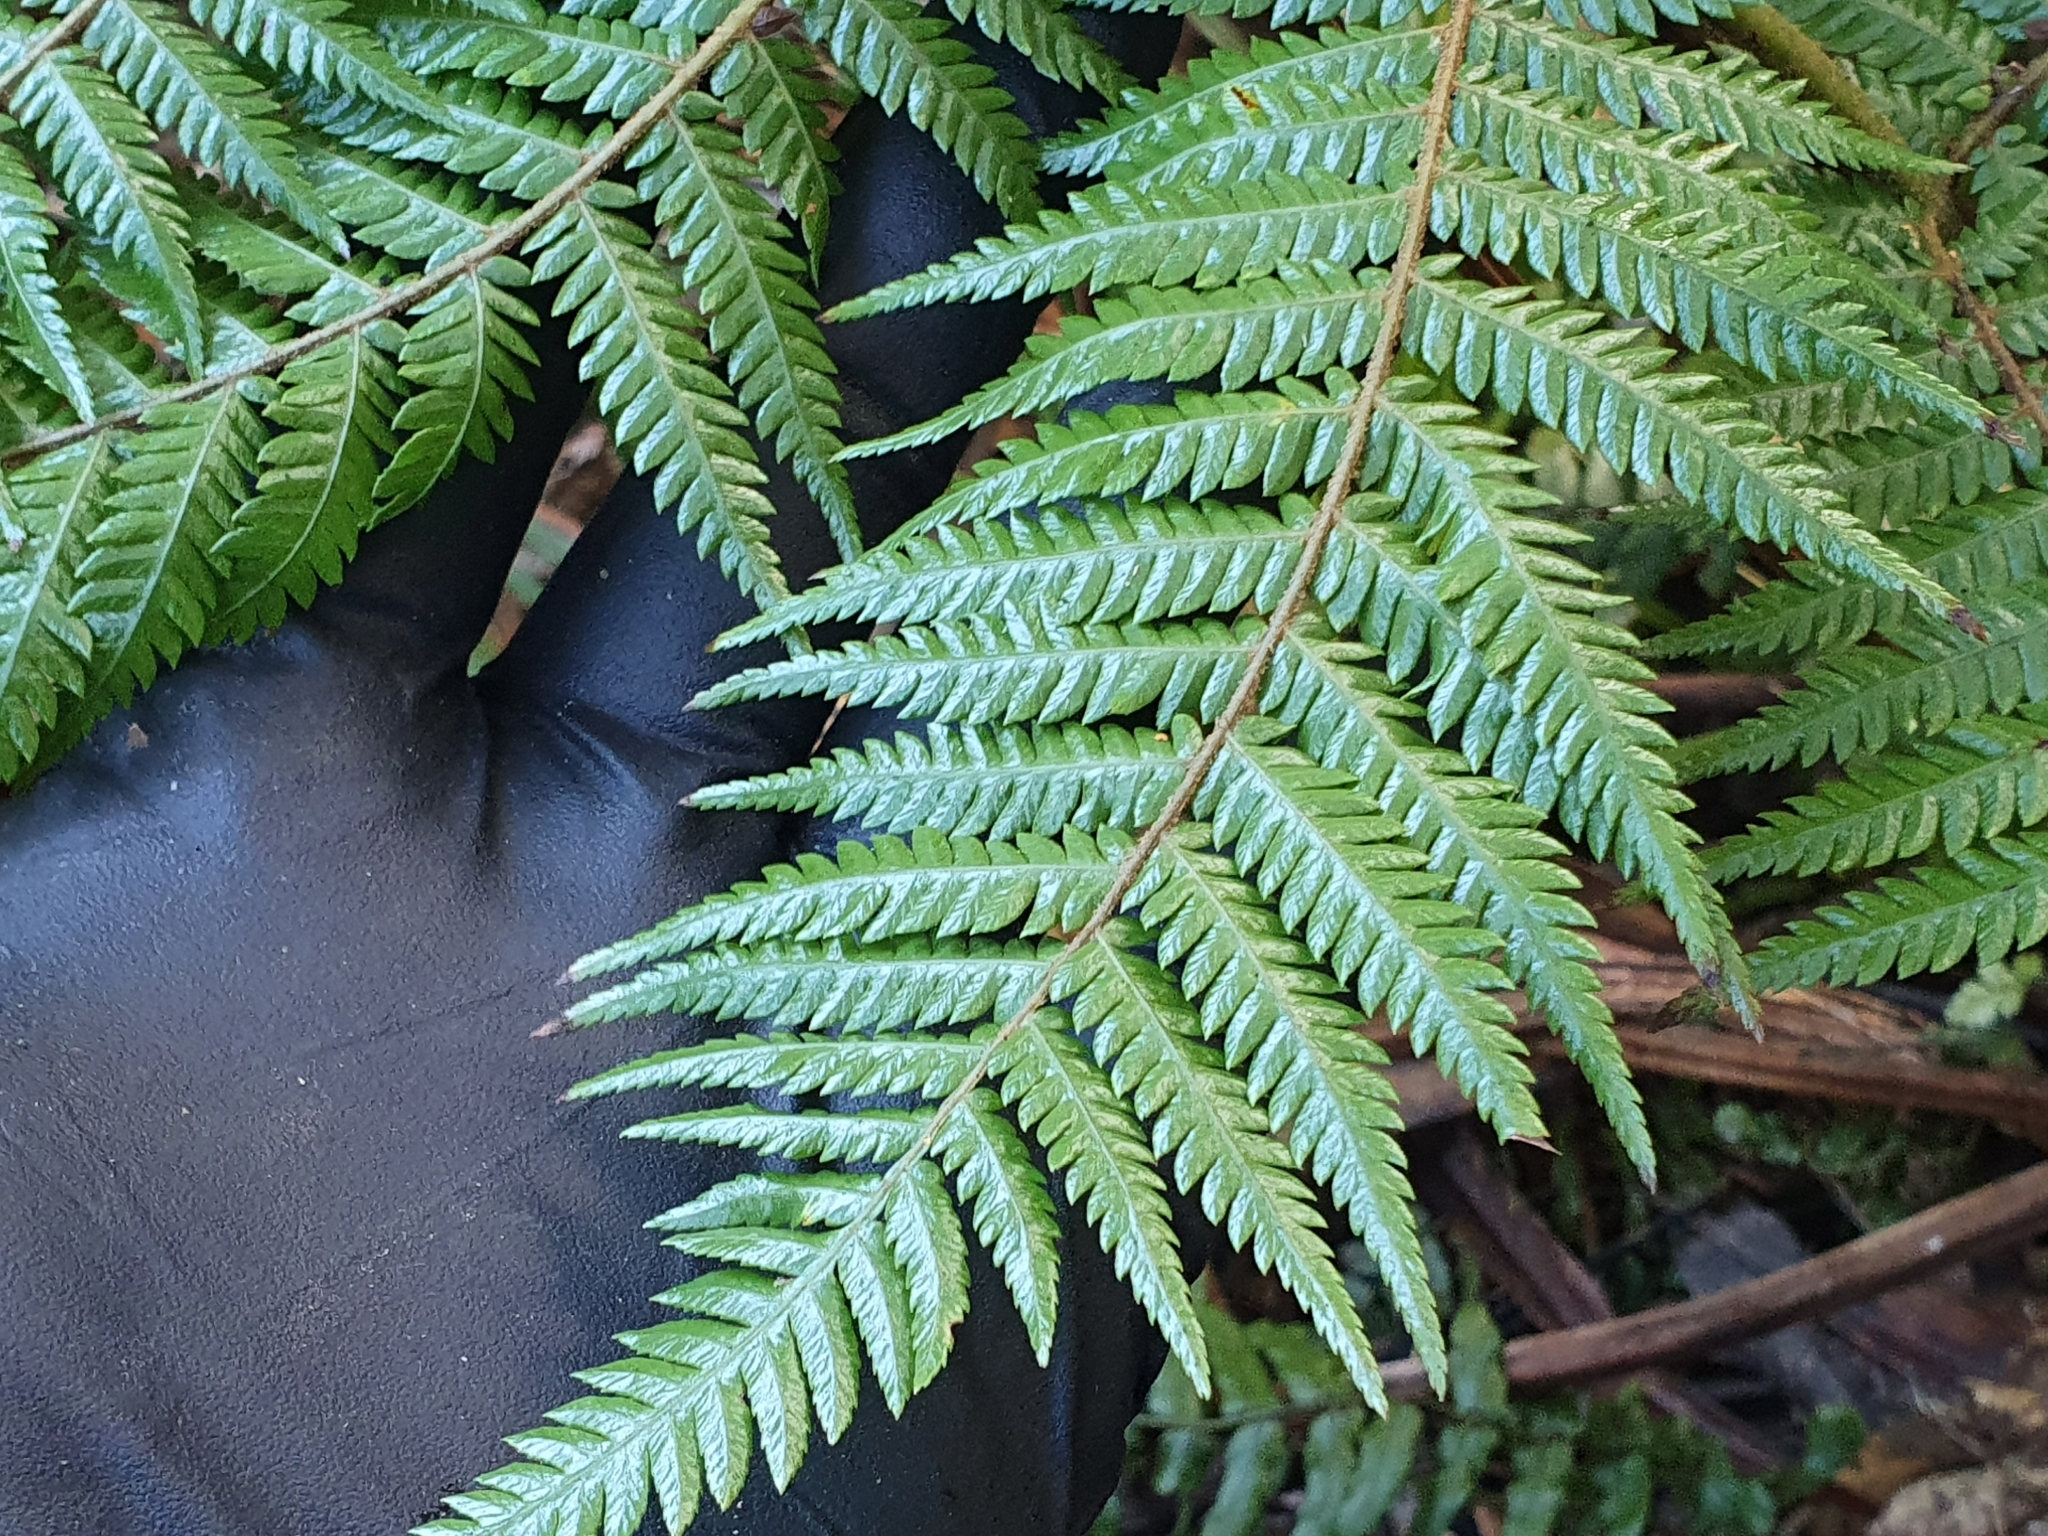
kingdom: Plantae
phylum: Tracheophyta
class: Polypodiopsida
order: Cyatheales
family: Cyatheaceae
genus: Alsophila
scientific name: Alsophila dealbata
